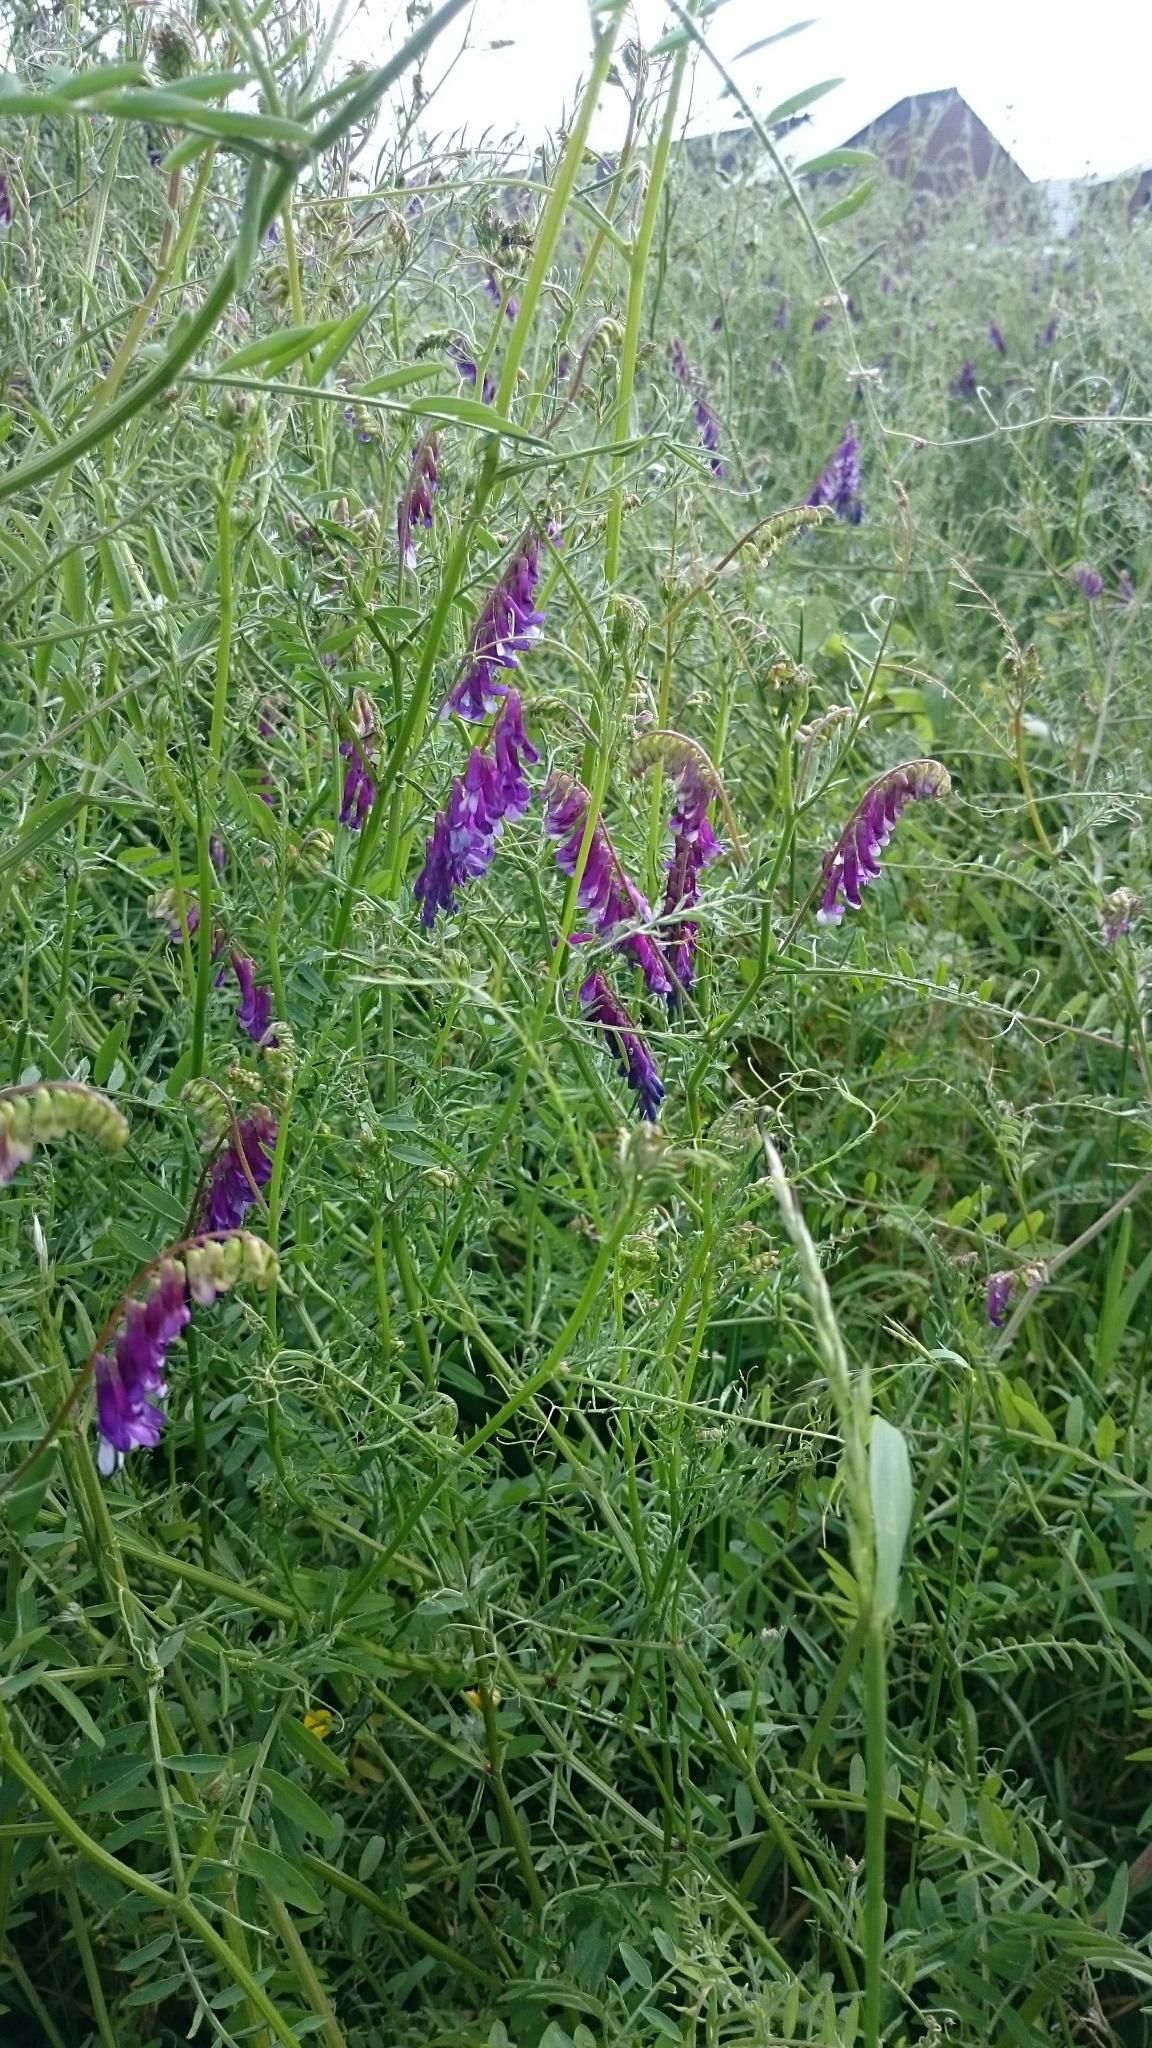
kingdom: Plantae
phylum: Tracheophyta
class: Magnoliopsida
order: Fabales
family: Fabaceae
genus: Vicia
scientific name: Vicia villosa
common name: Fodder vetch
